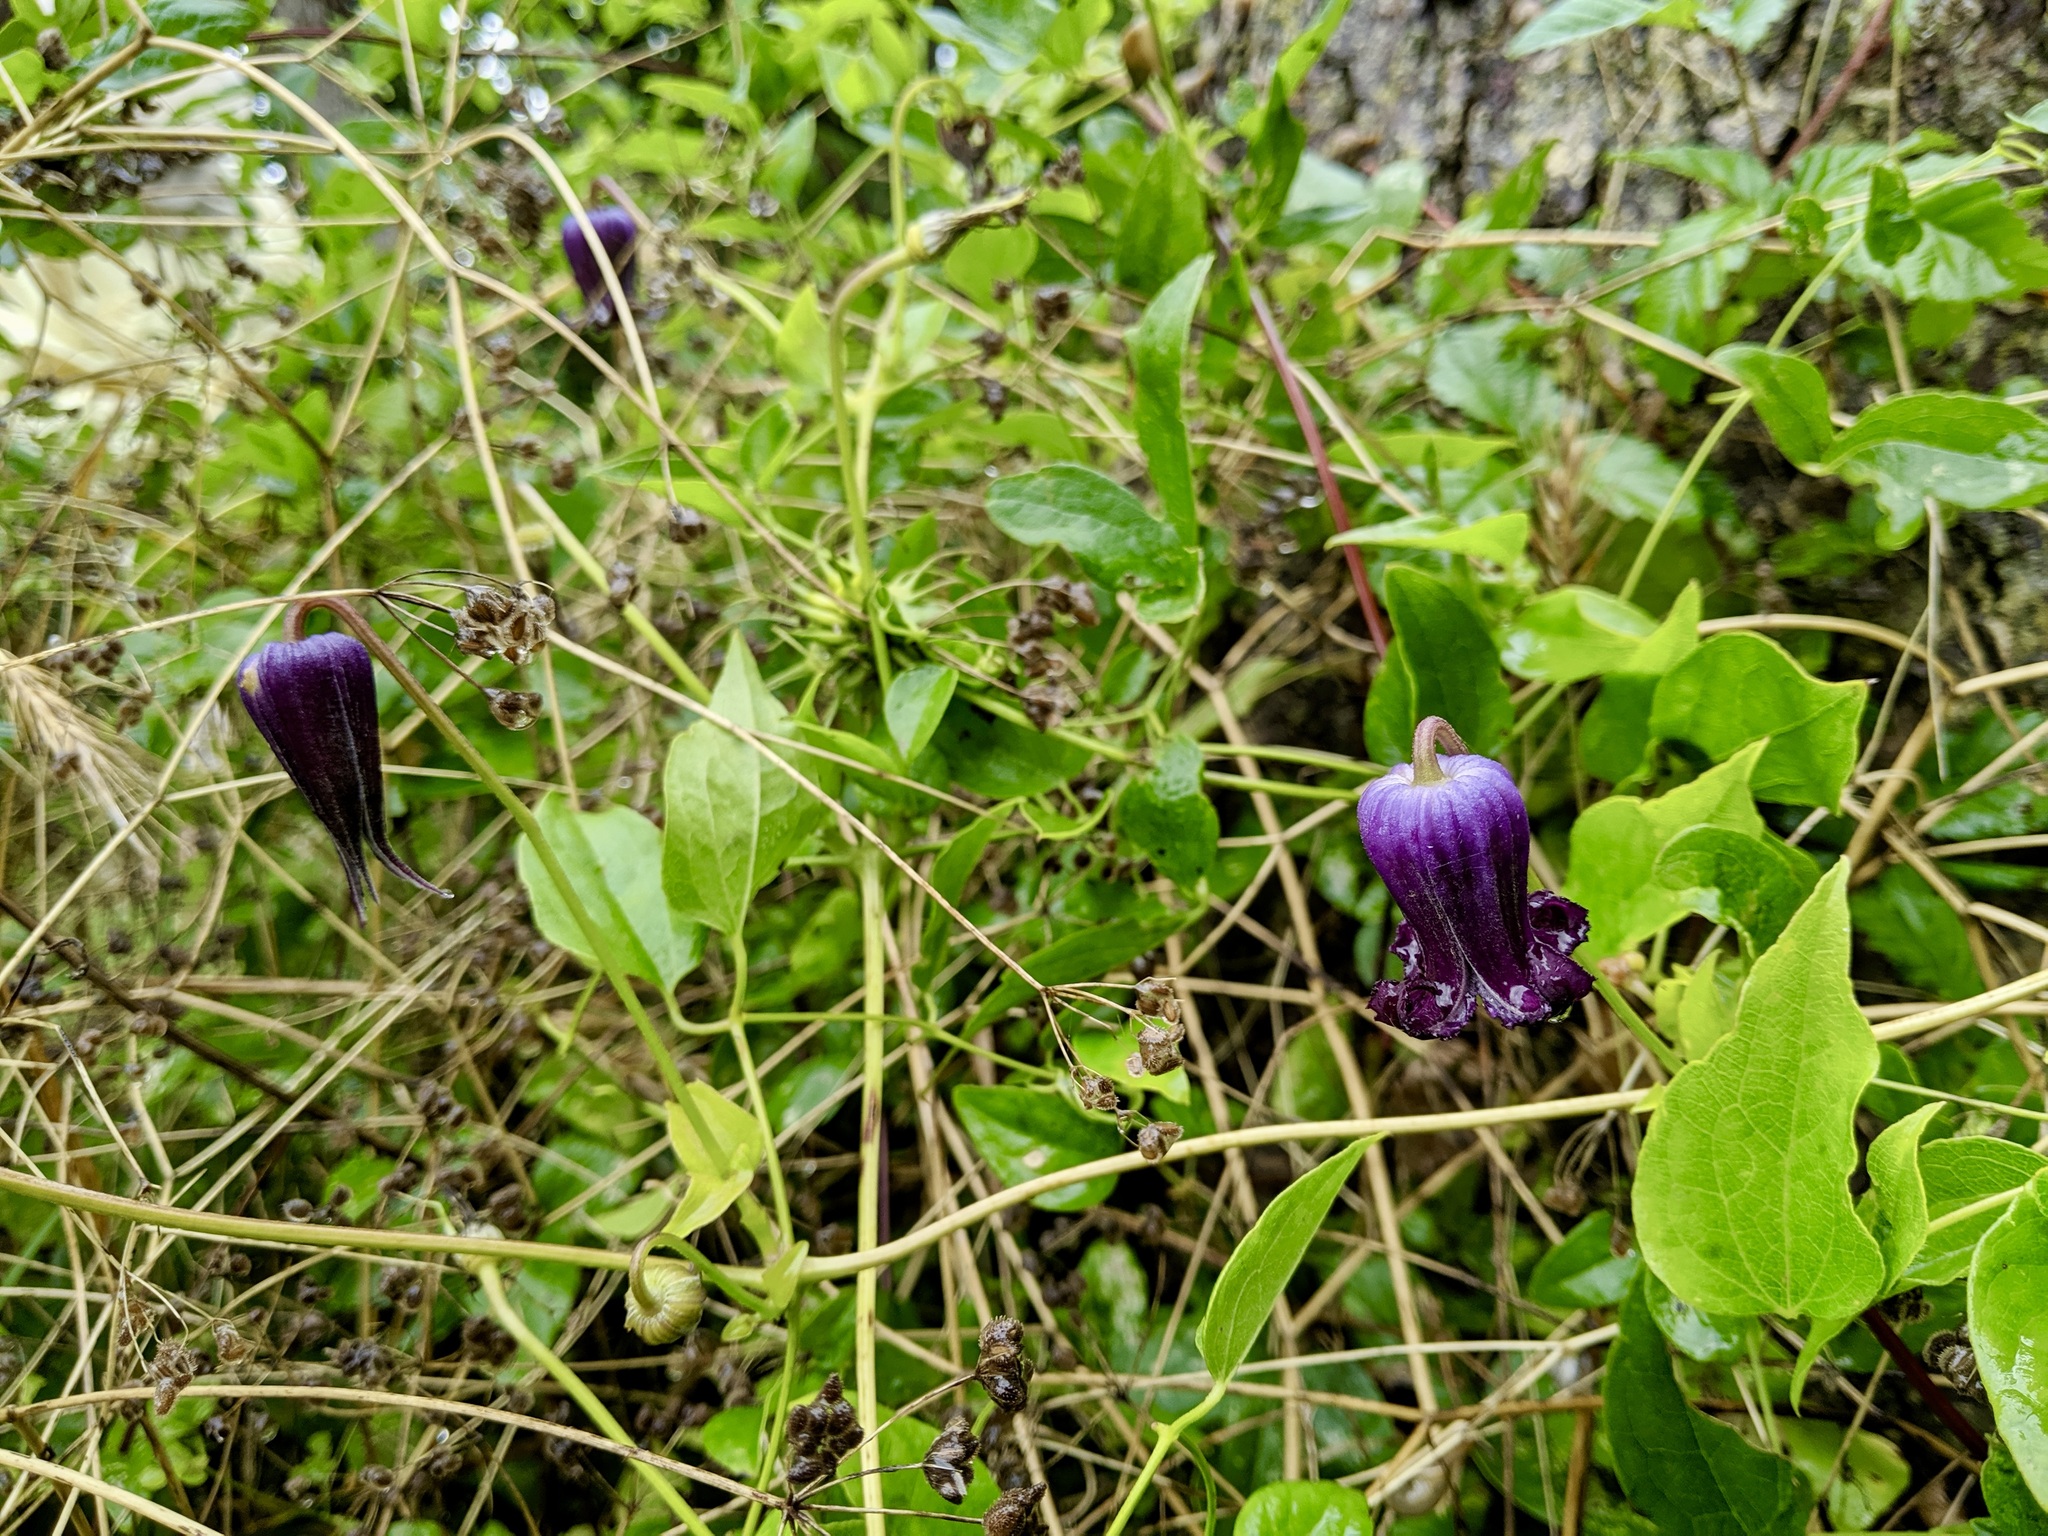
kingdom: Plantae
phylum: Tracheophyta
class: Magnoliopsida
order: Ranunculales
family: Ranunculaceae
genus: Clematis
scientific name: Clematis pitcheri
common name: Bellflower clematis
